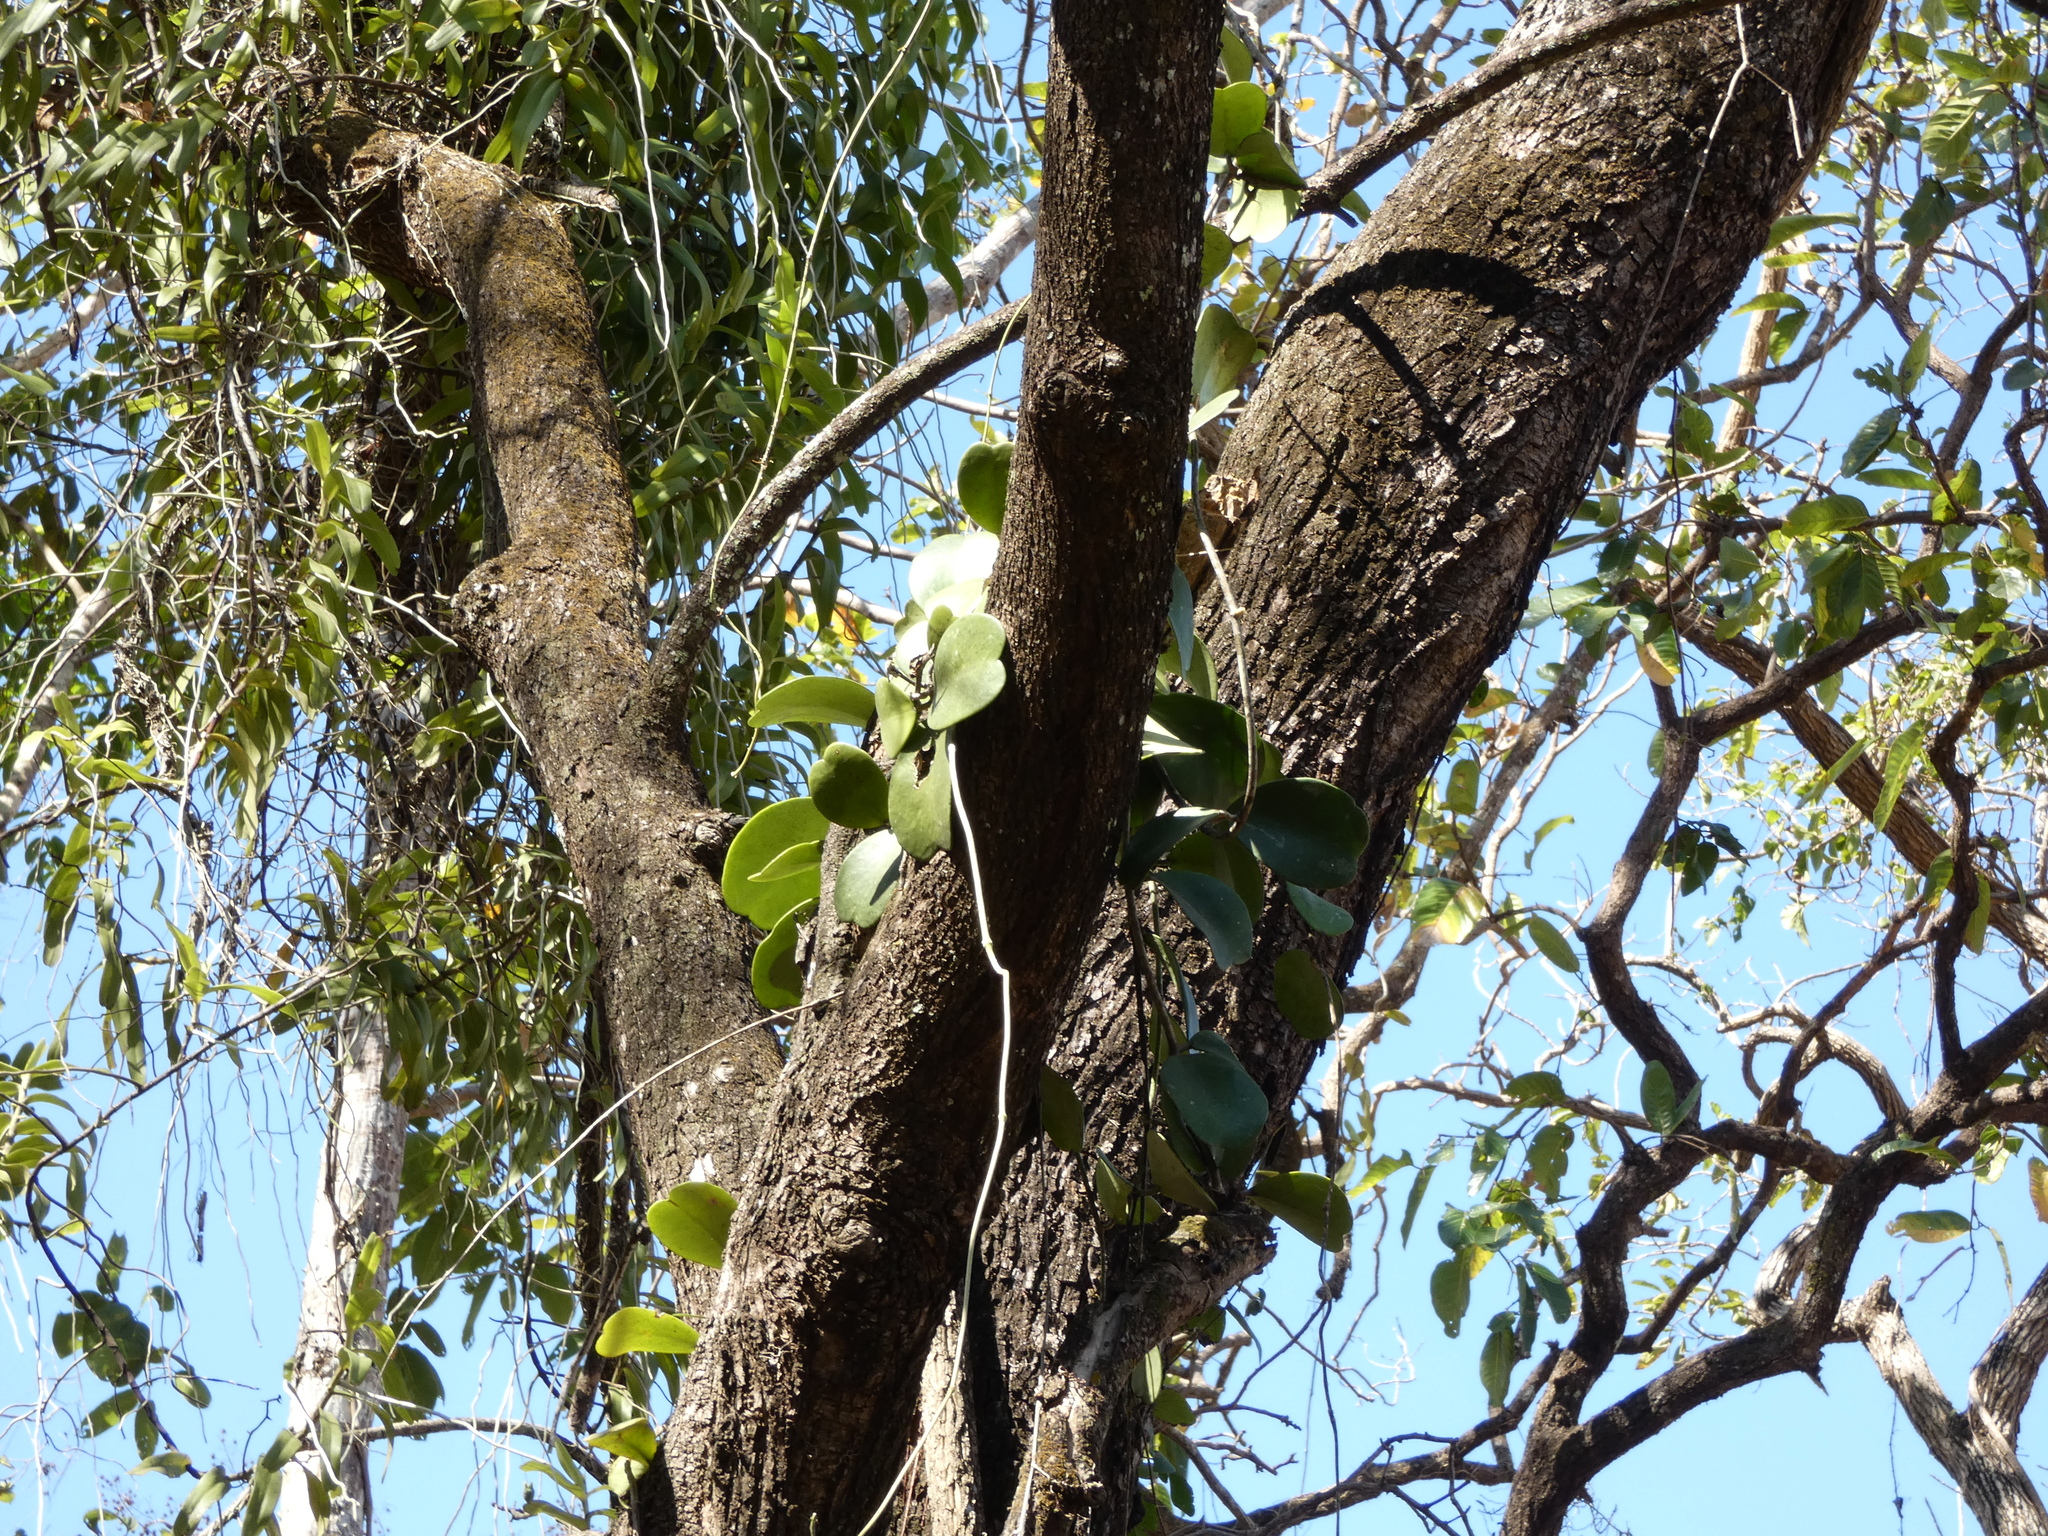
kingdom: Plantae
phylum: Tracheophyta
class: Magnoliopsida
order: Gentianales
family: Apocynaceae
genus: Hoya
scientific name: Hoya kerrii
